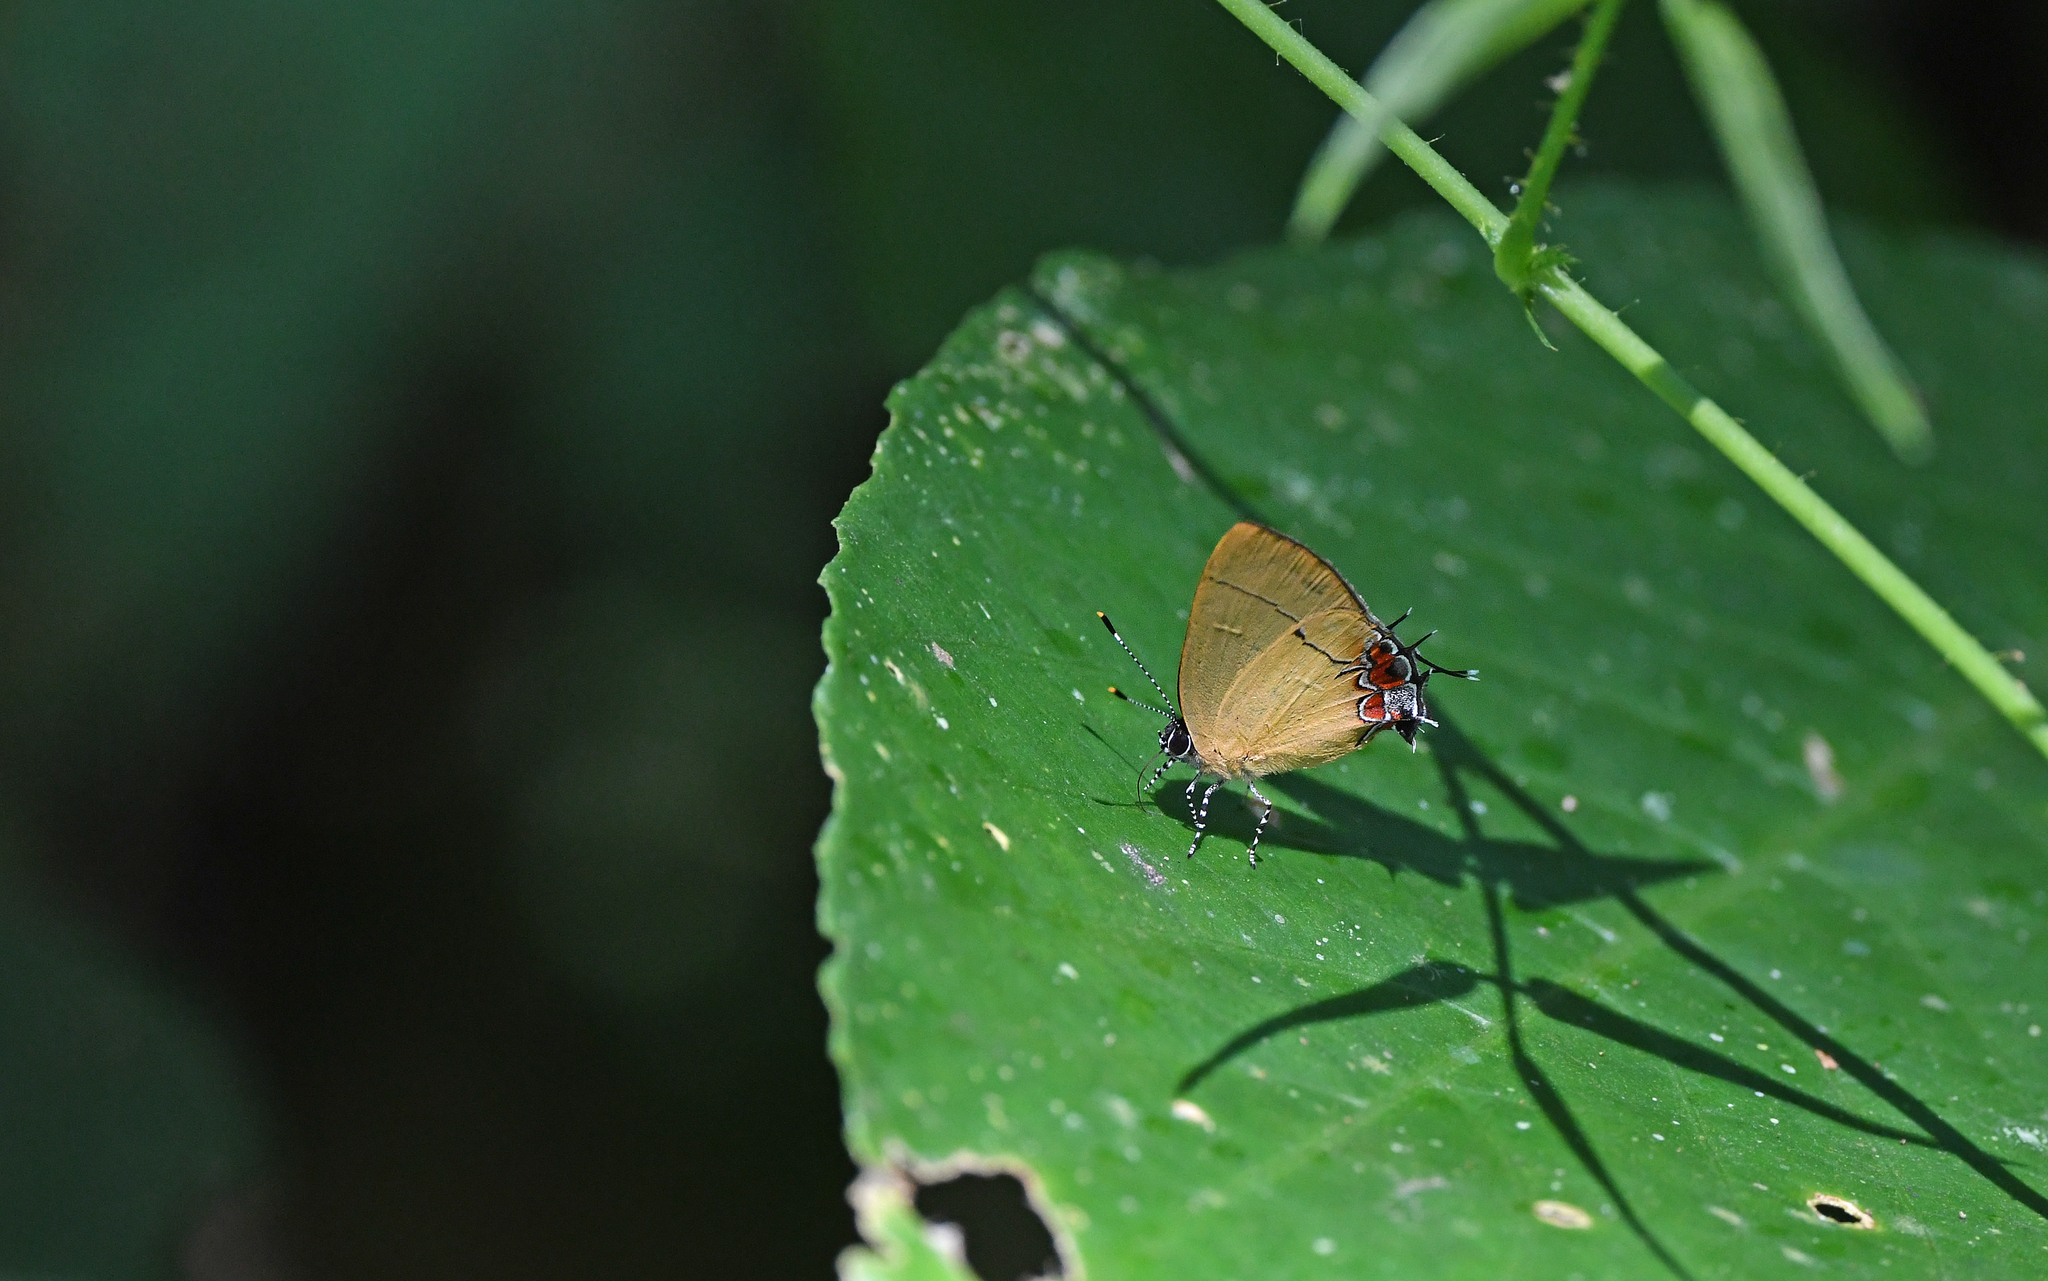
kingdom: Animalia
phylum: Arthropoda
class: Insecta
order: Lepidoptera
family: Lycaenidae
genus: Calycopis
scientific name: Calycopis trebula
